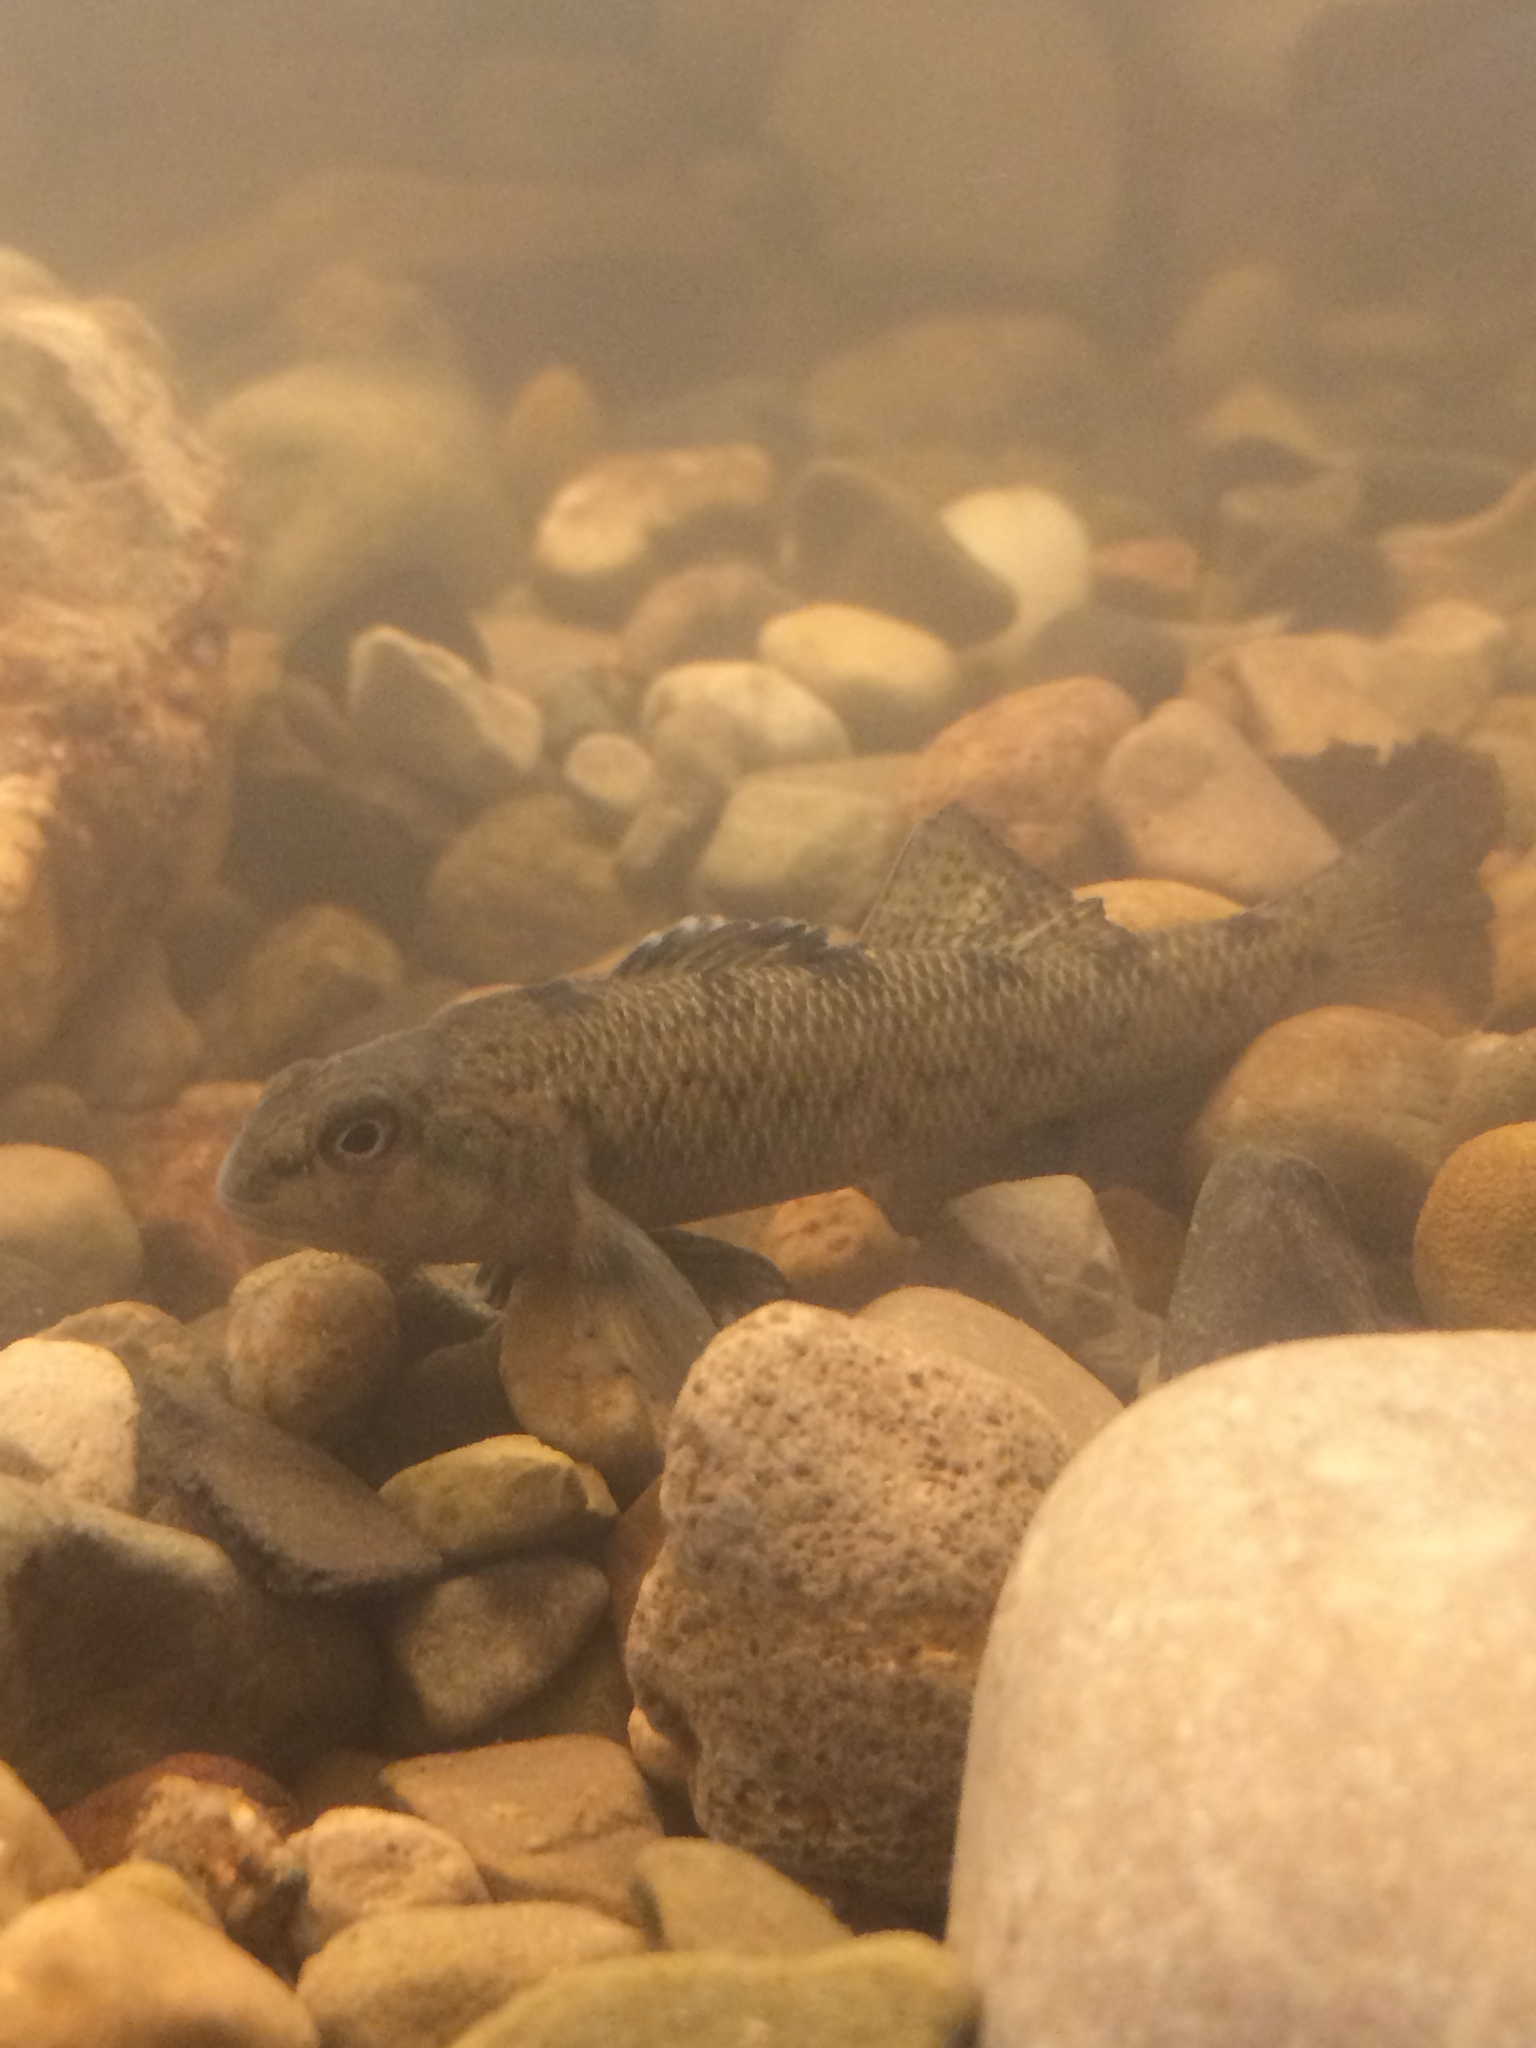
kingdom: Animalia
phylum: Chordata
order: Perciformes
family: Percidae
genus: Etheostoma
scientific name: Etheostoma nigrum
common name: Johnny darter
